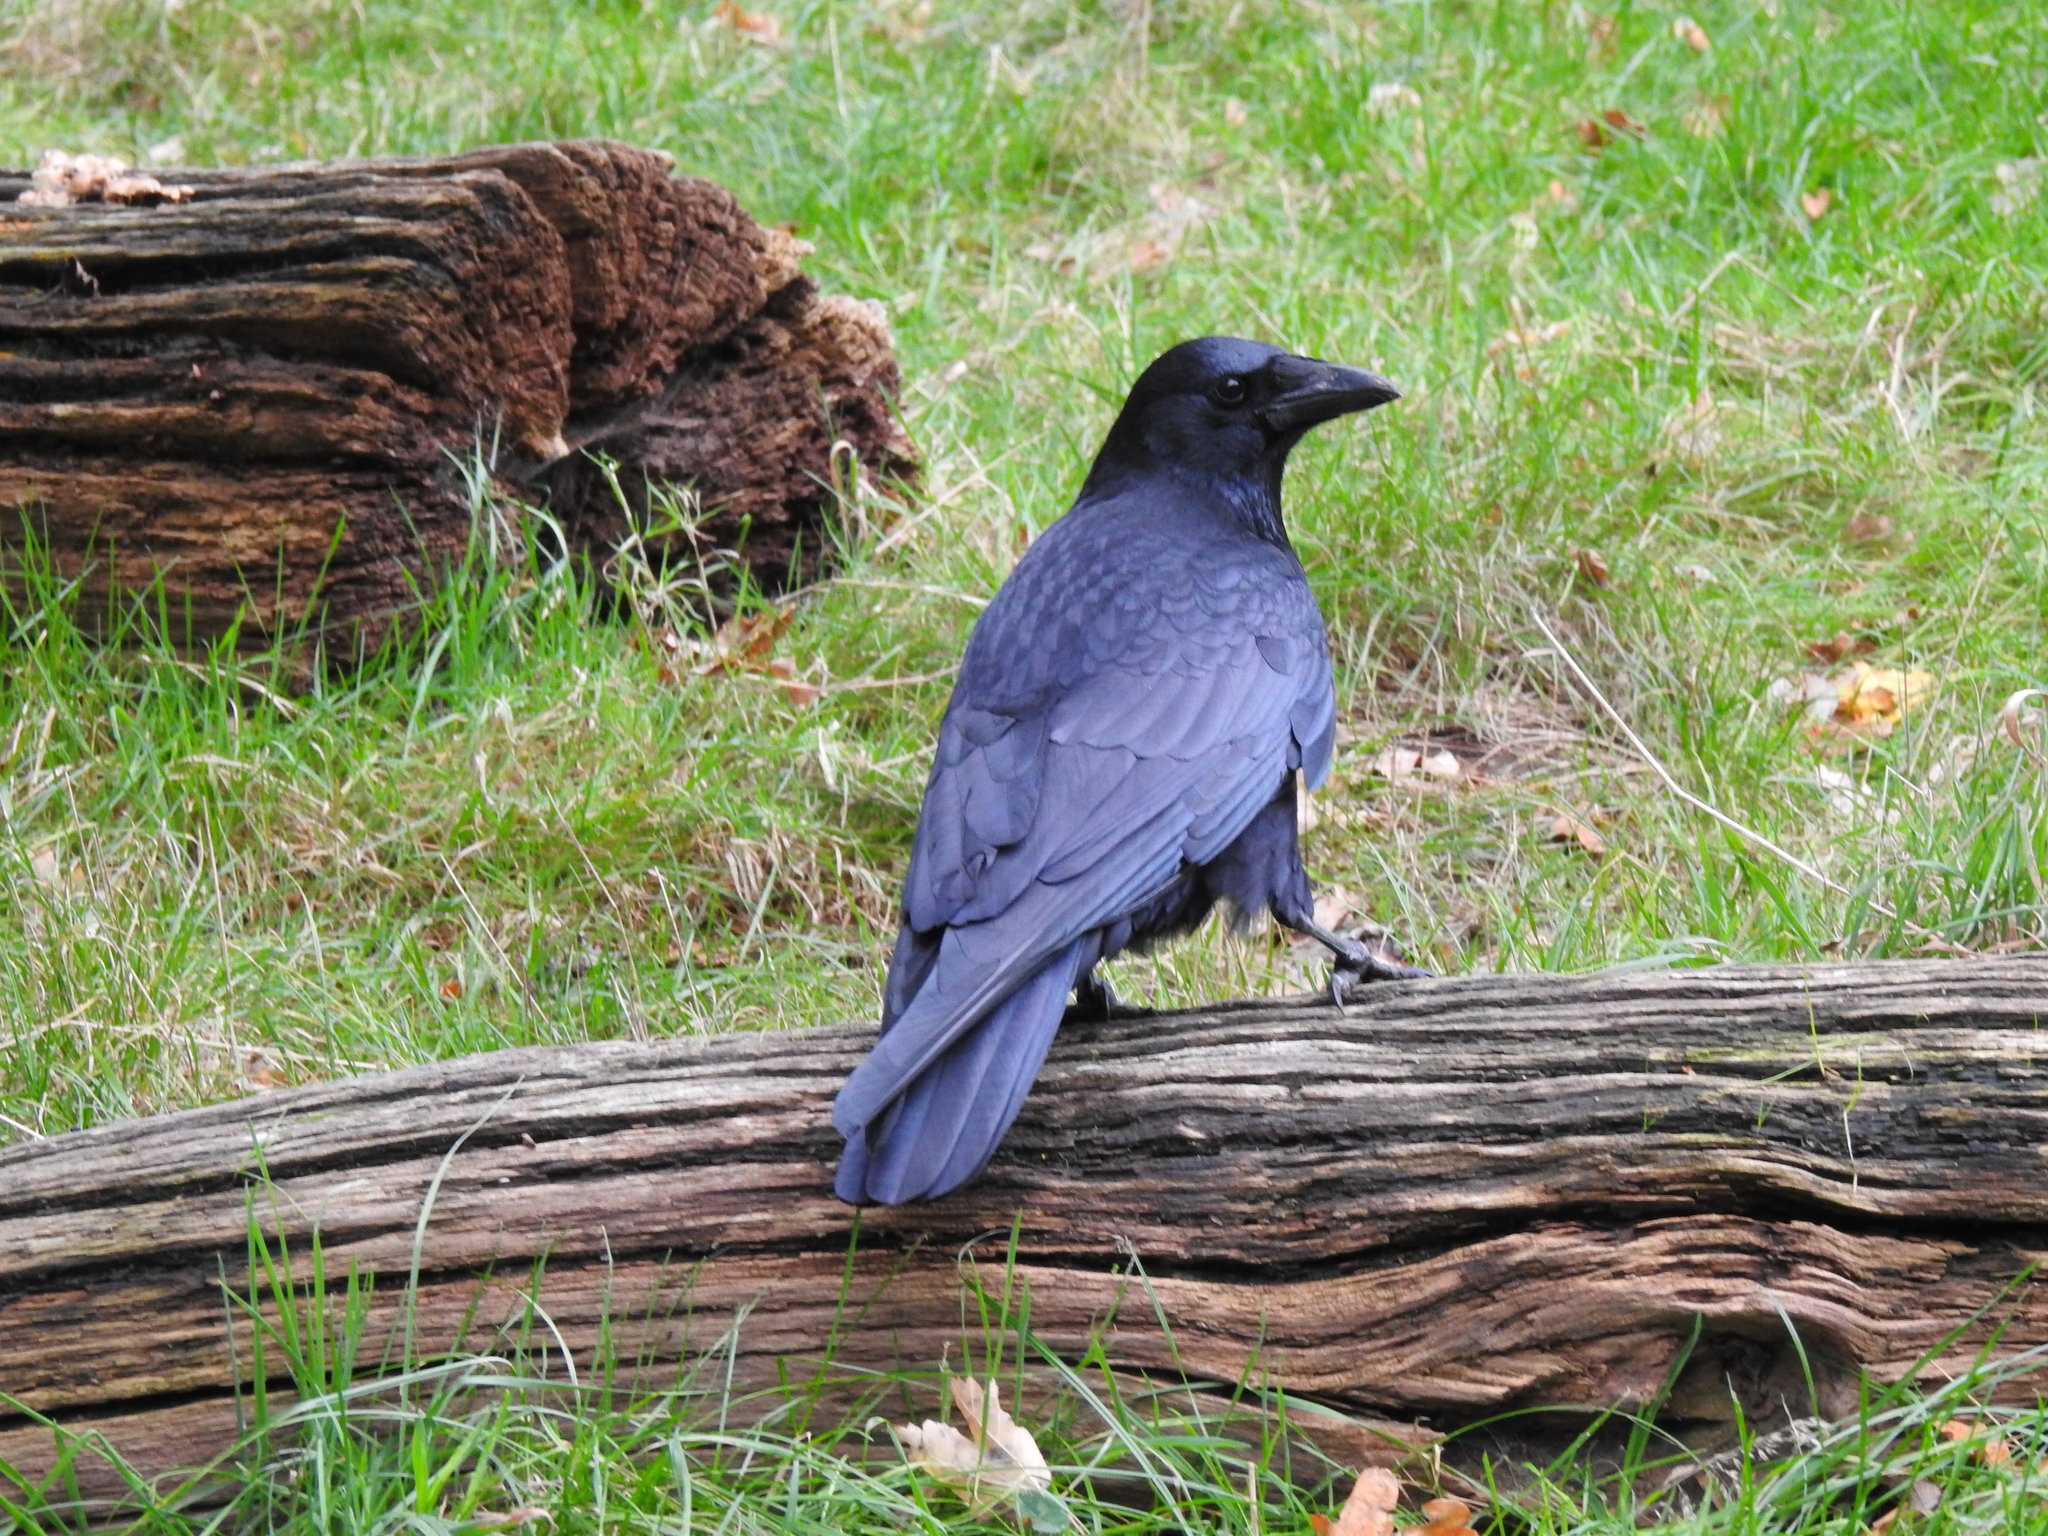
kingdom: Animalia
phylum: Chordata
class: Aves
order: Passeriformes
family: Corvidae
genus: Corvus
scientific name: Corvus corone
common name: Carrion crow
